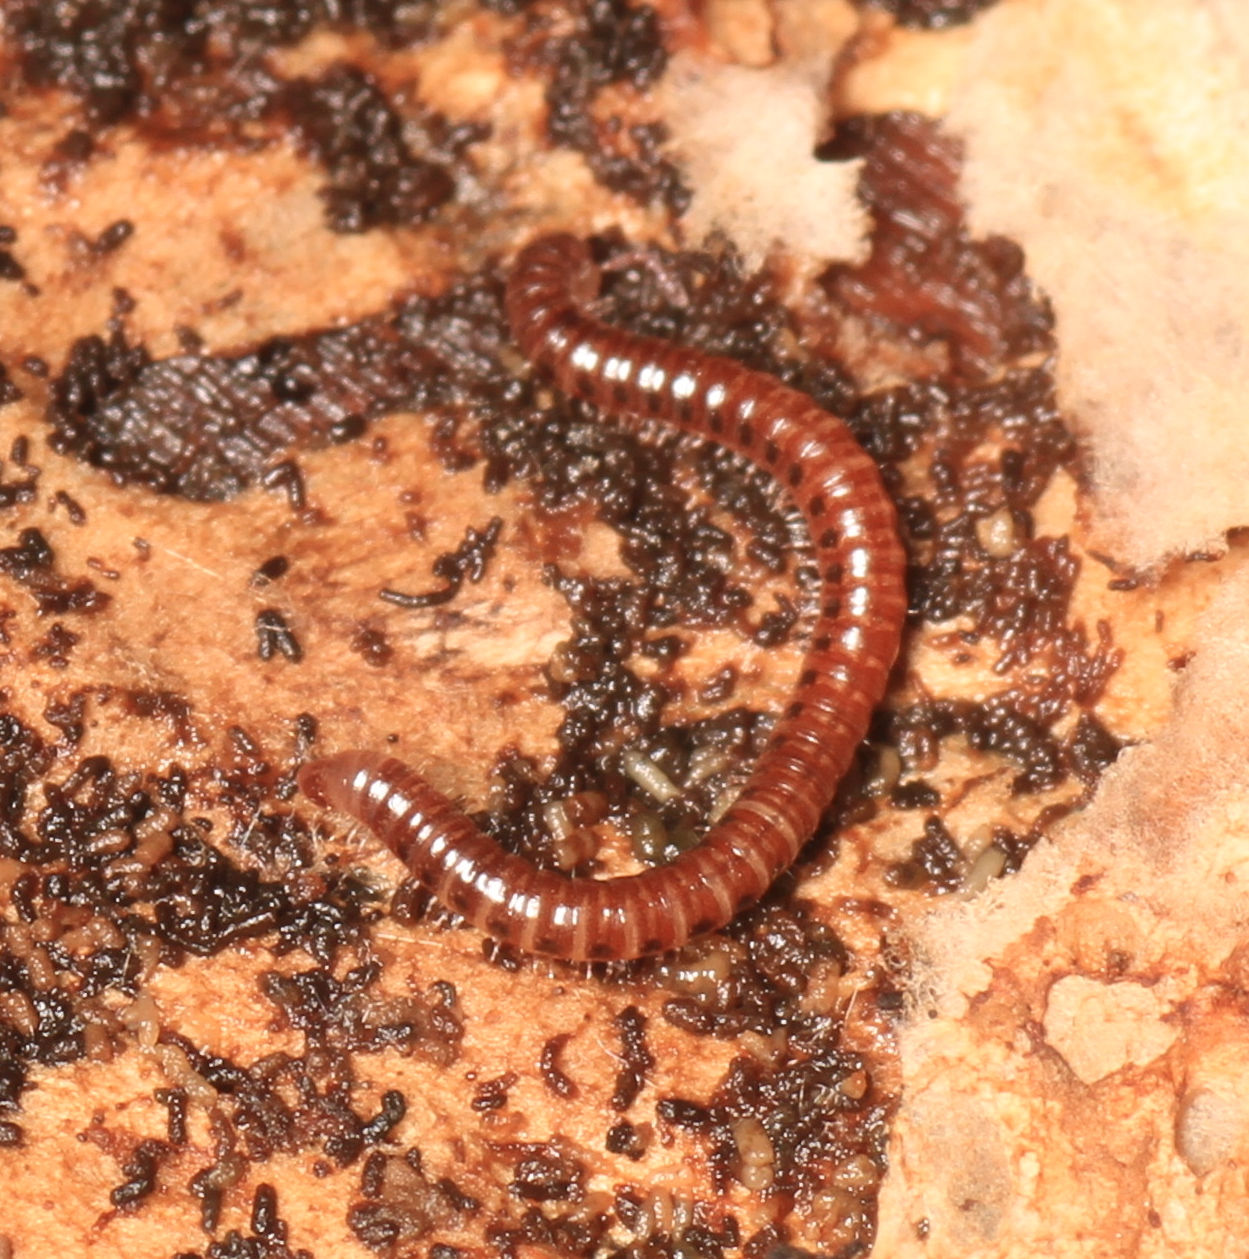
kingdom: Animalia
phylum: Arthropoda
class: Diplopoda
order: Julida
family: Blaniulidae
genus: Proteroiulus
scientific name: Proteroiulus fuscus
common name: Millipede
